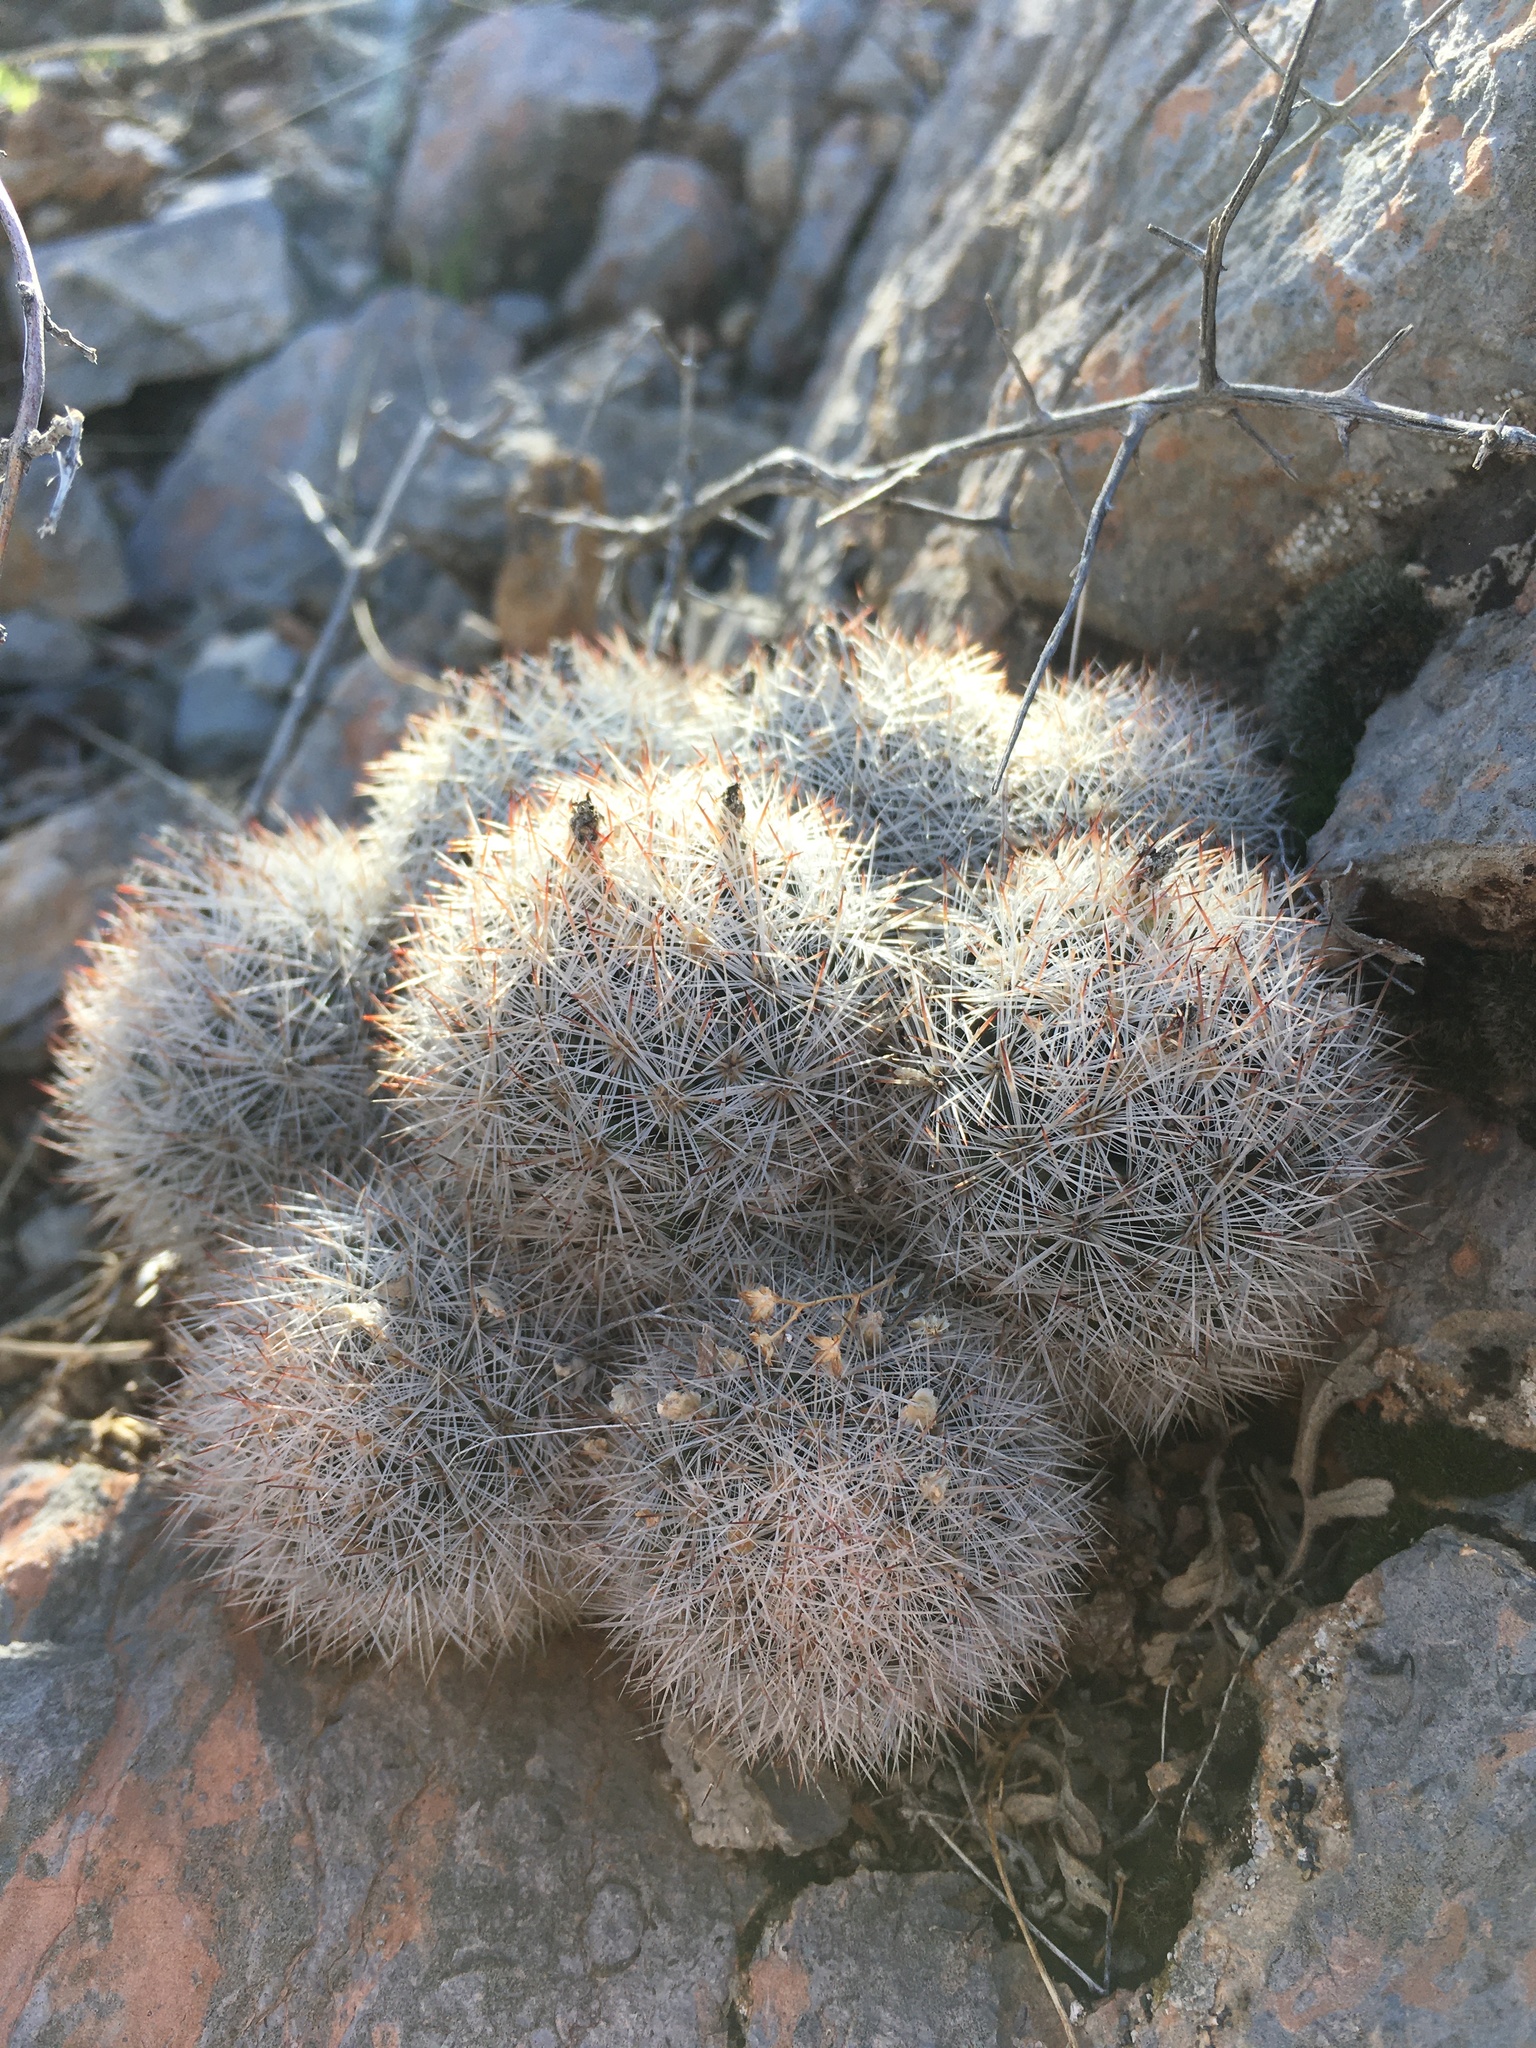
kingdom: Plantae
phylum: Tracheophyta
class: Magnoliopsida
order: Caryophyllales
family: Cactaceae
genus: Pelecyphora
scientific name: Pelecyphora sneedii
